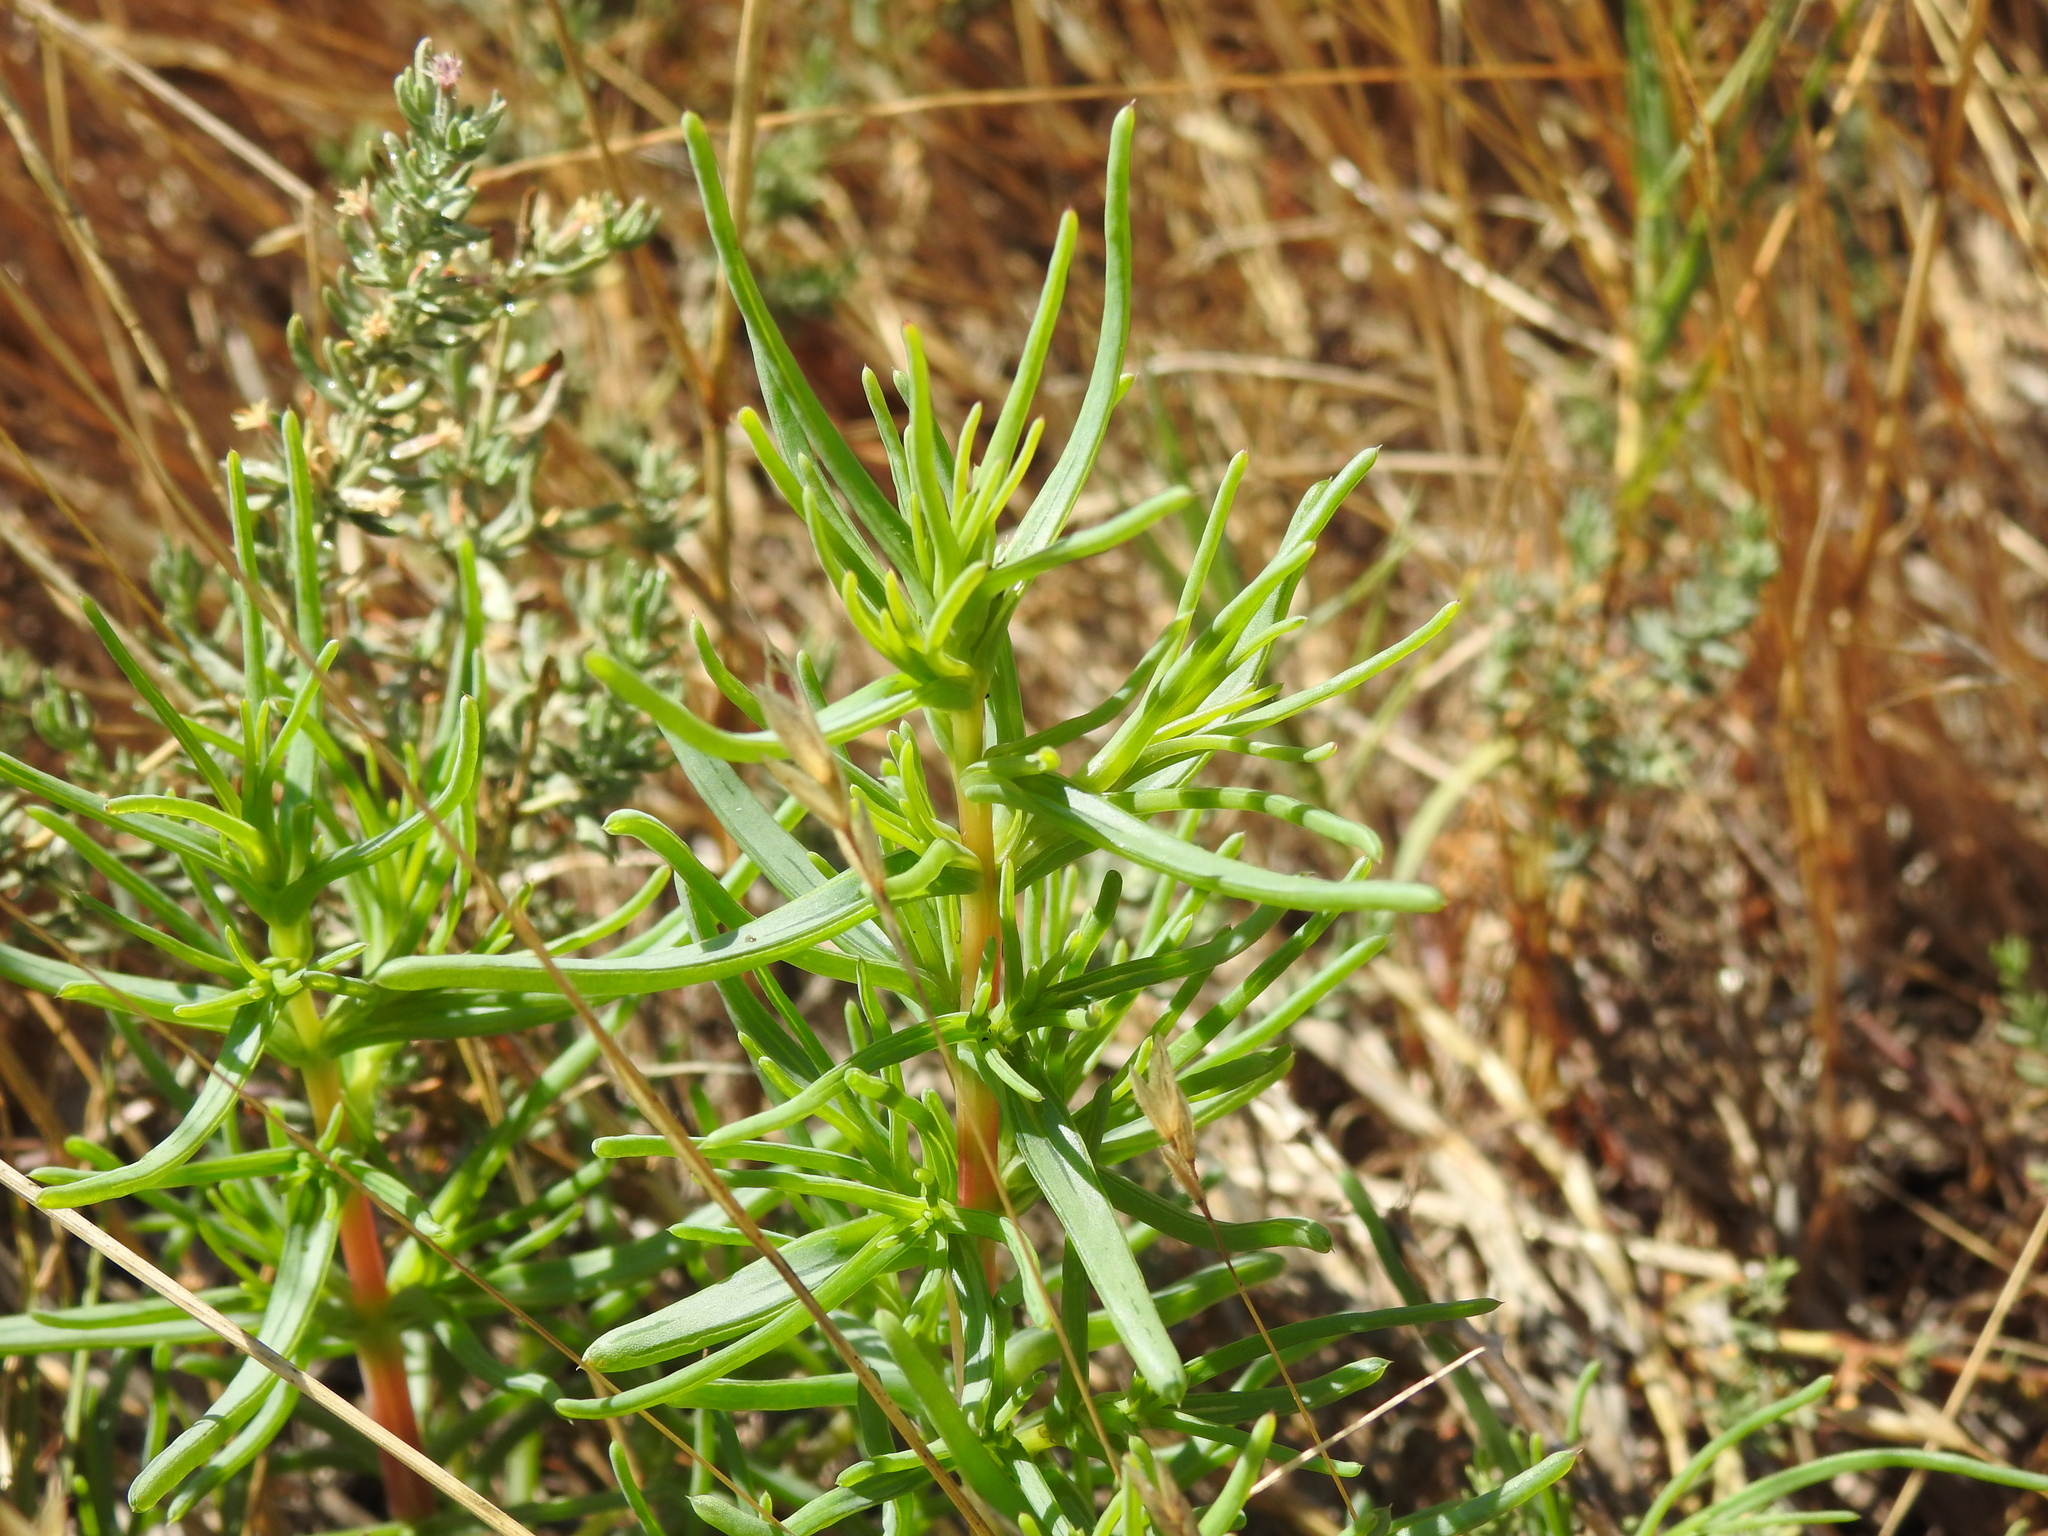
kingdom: Plantae
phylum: Tracheophyta
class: Magnoliopsida
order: Caryophyllales
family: Amaranthaceae
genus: Salsola
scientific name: Salsola soda
